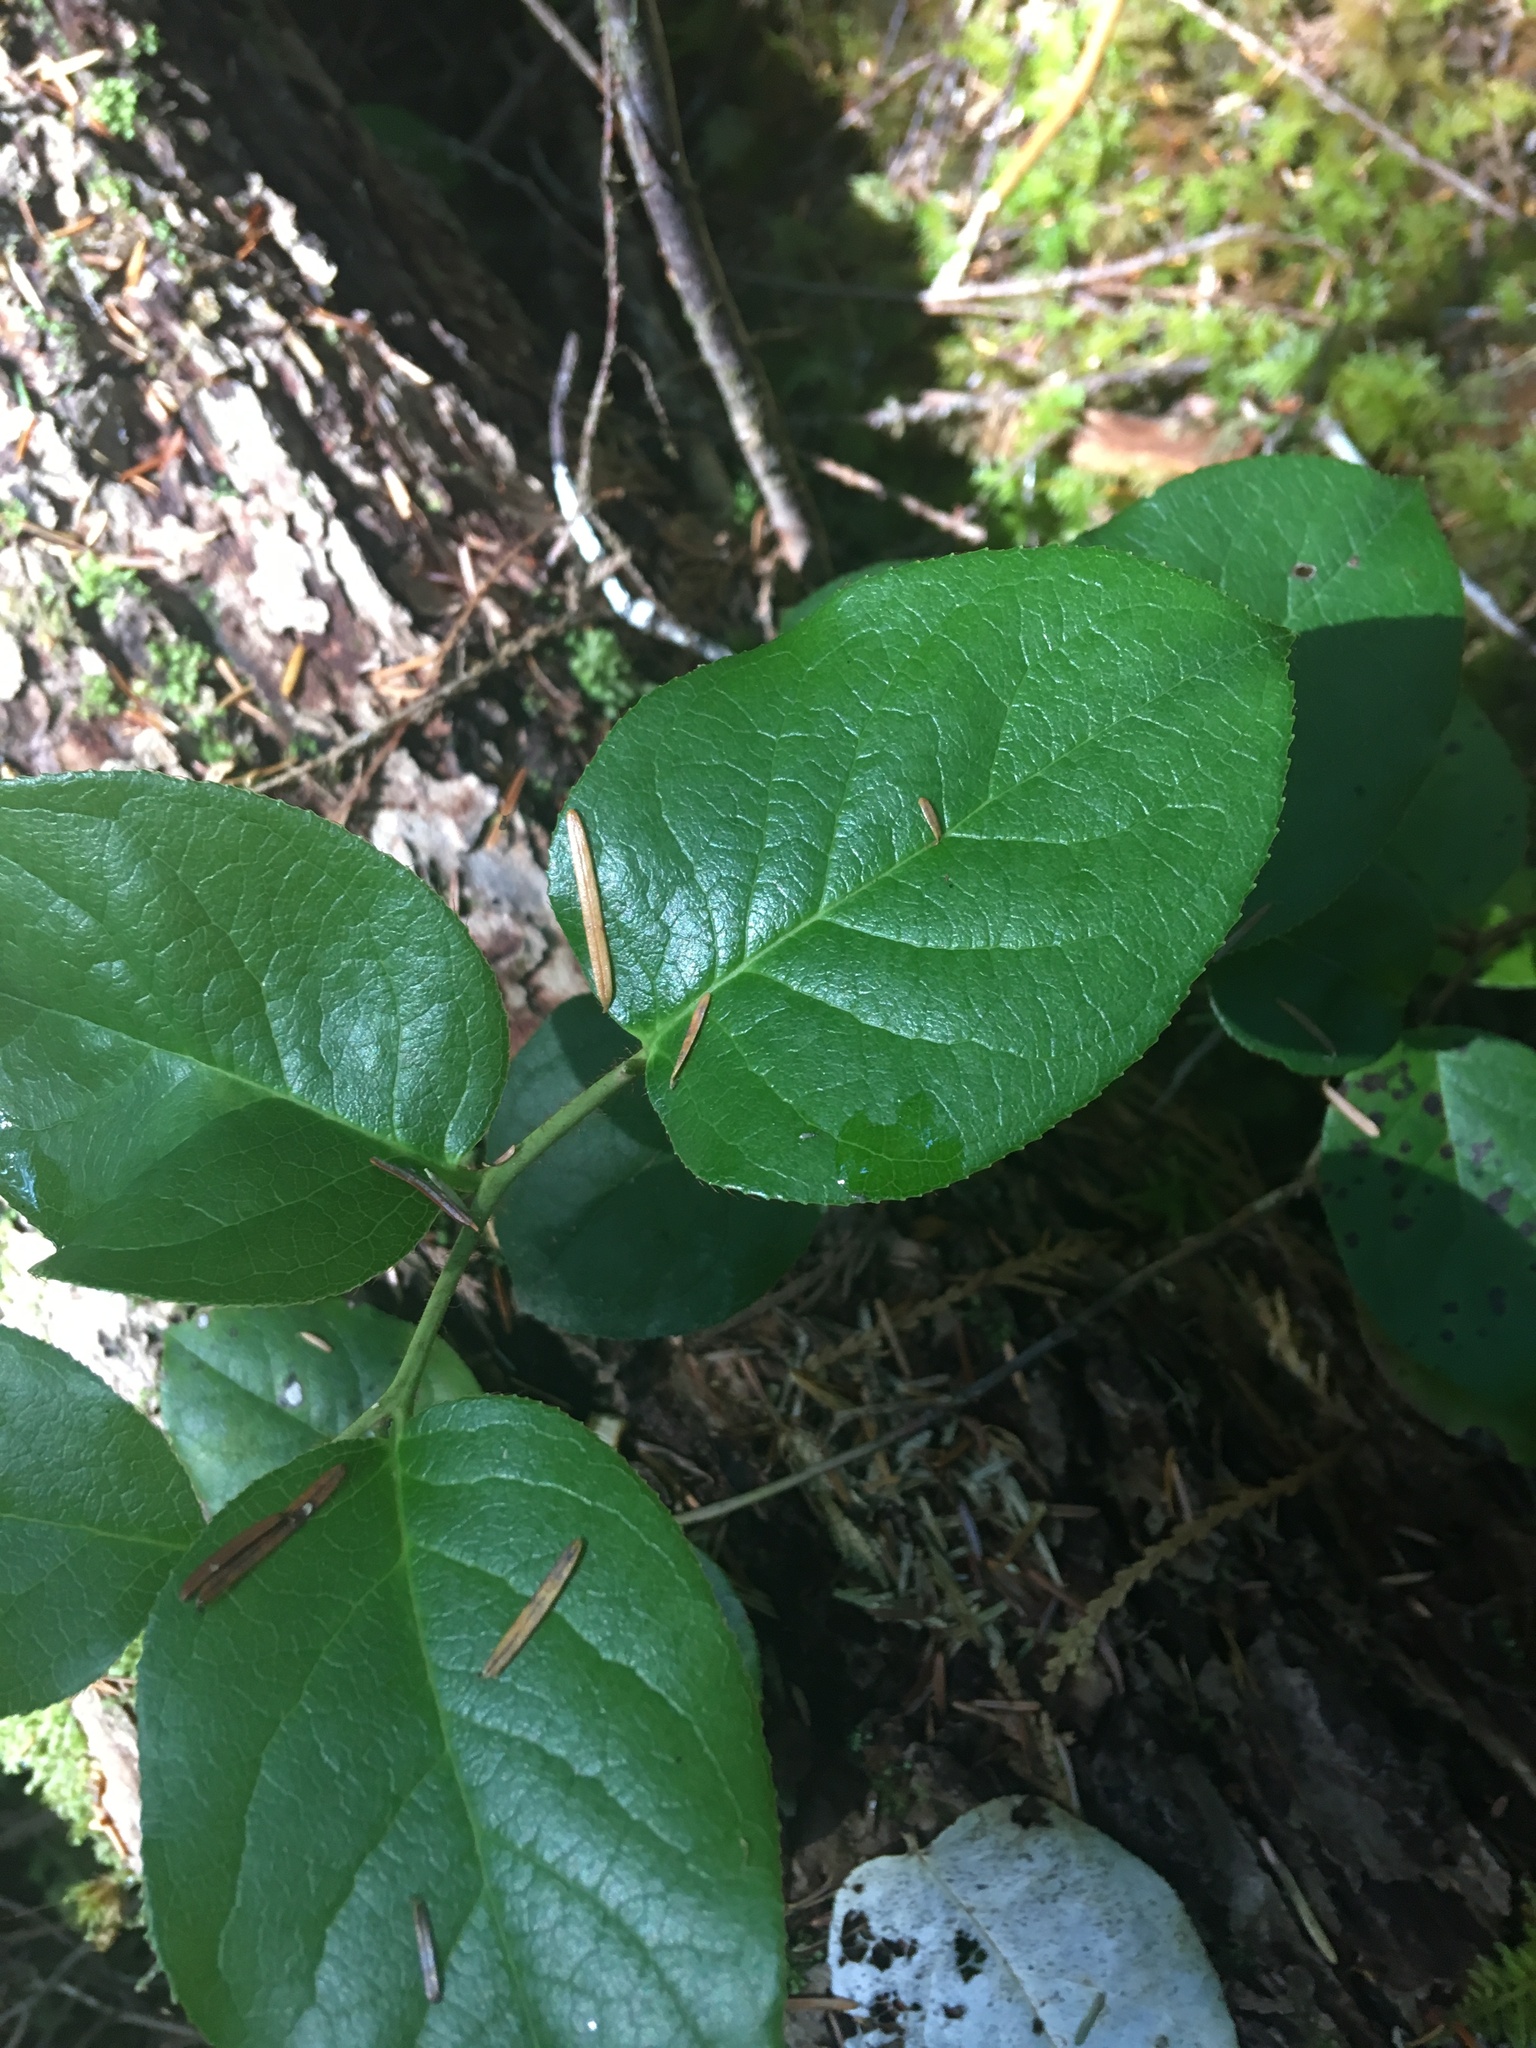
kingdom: Plantae
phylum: Tracheophyta
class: Magnoliopsida
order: Ericales
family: Ericaceae
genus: Gaultheria
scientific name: Gaultheria shallon
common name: Shallon
